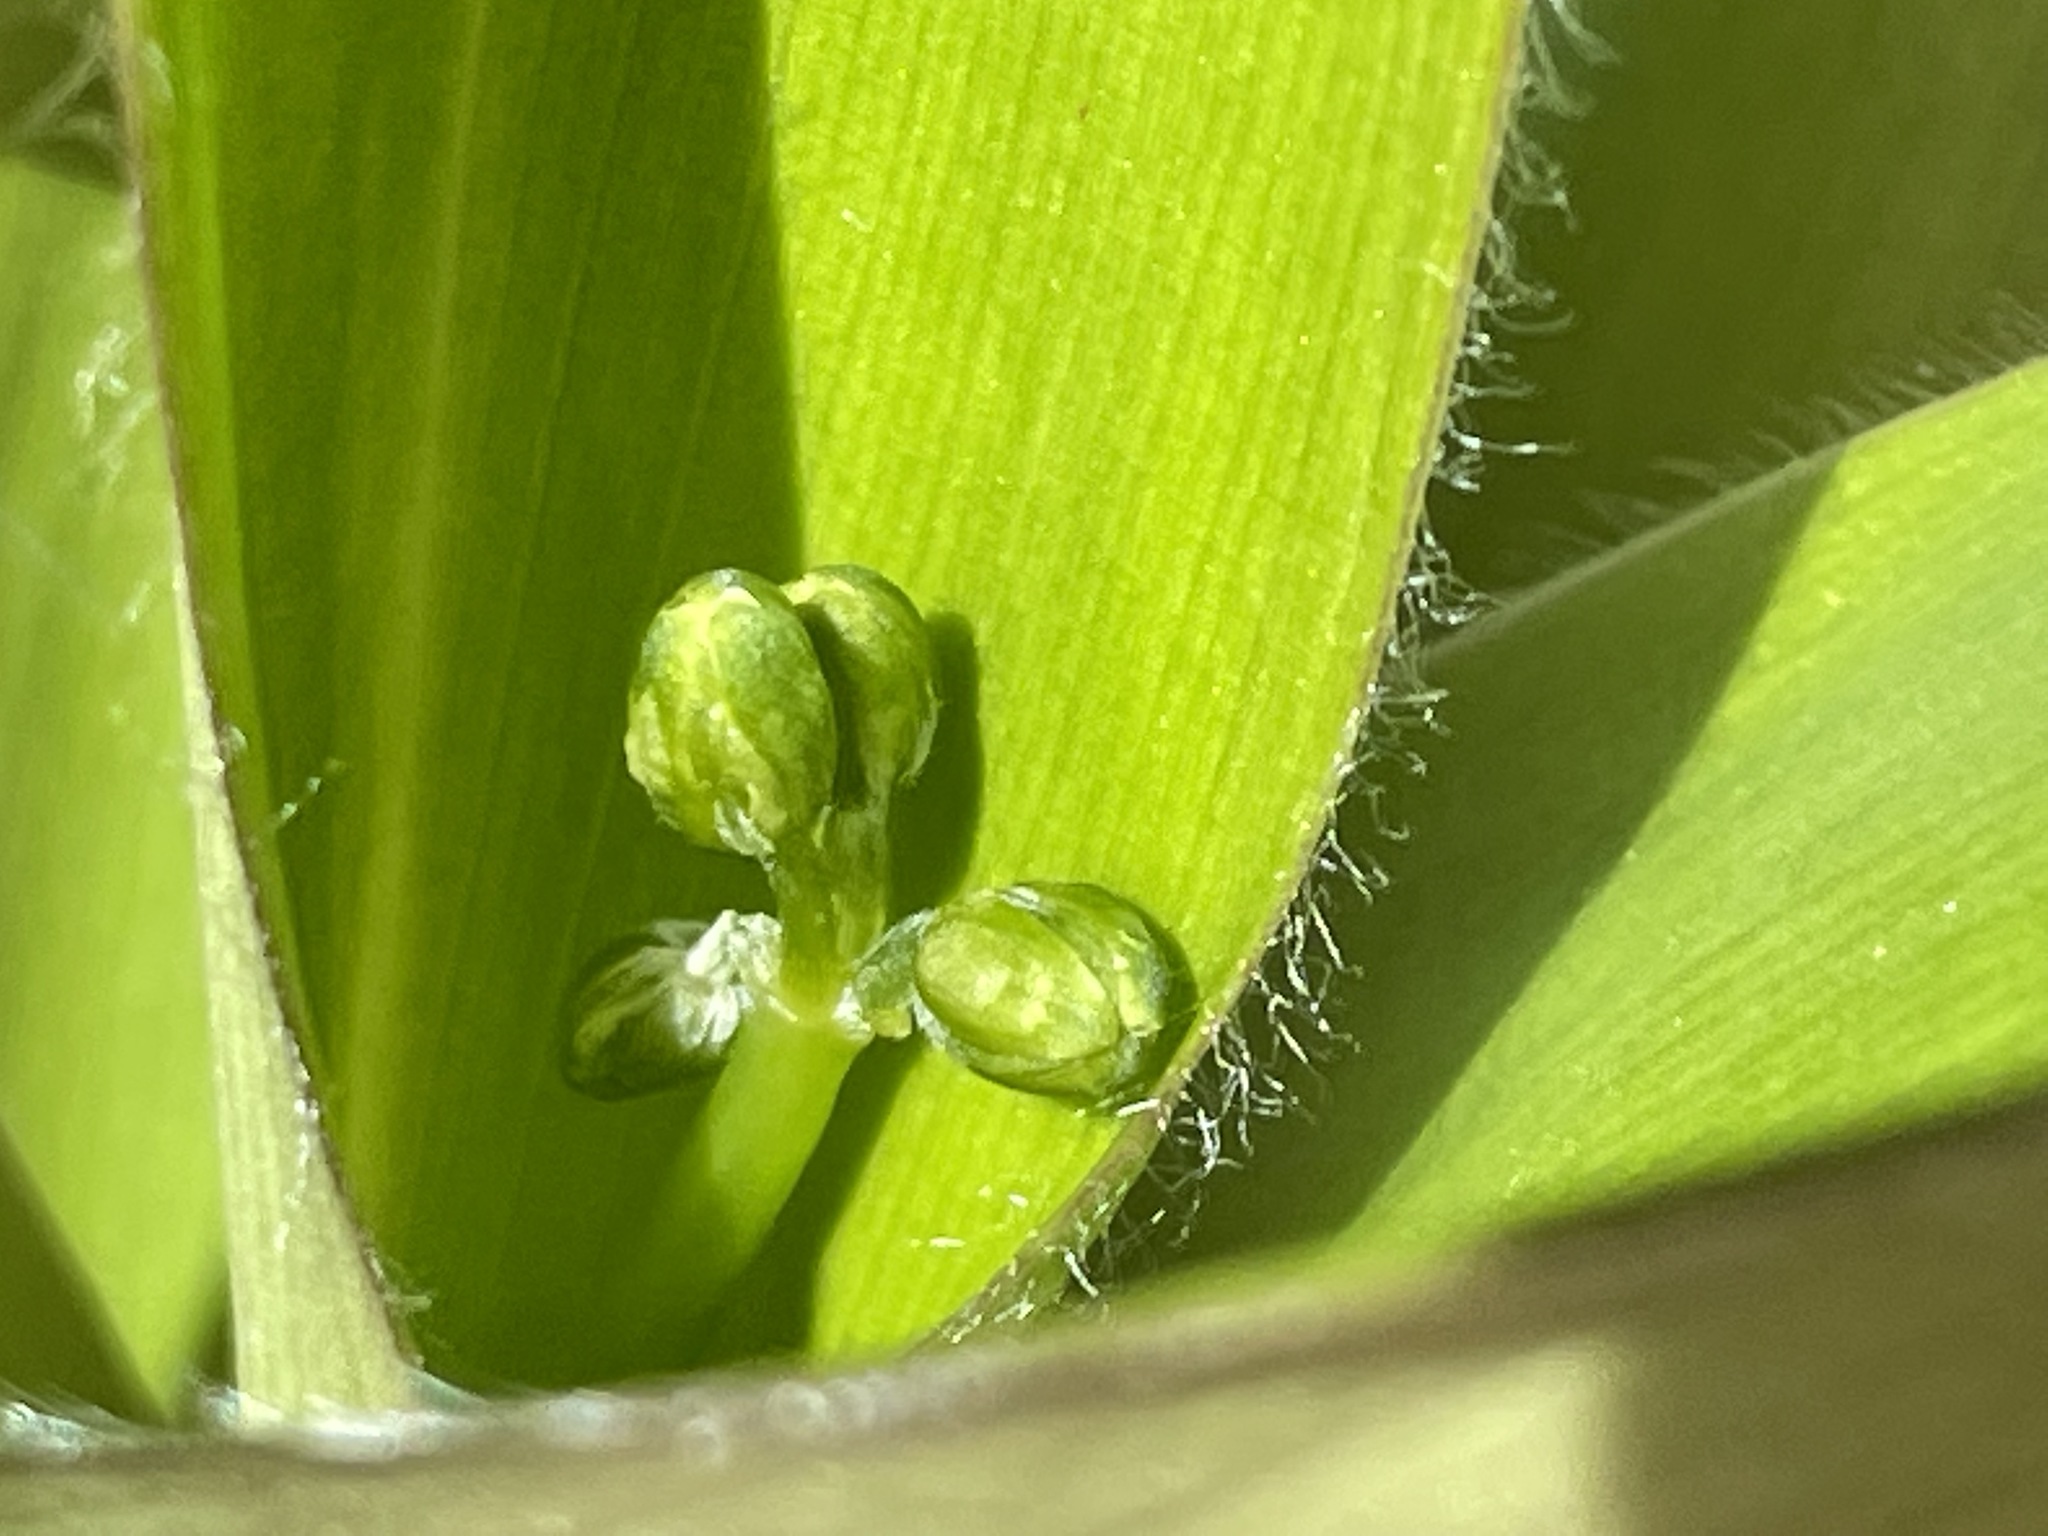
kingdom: Plantae
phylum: Tracheophyta
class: Liliopsida
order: Liliales
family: Liliaceae
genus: Clintonia
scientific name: Clintonia borealis
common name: Yellow clintonia
